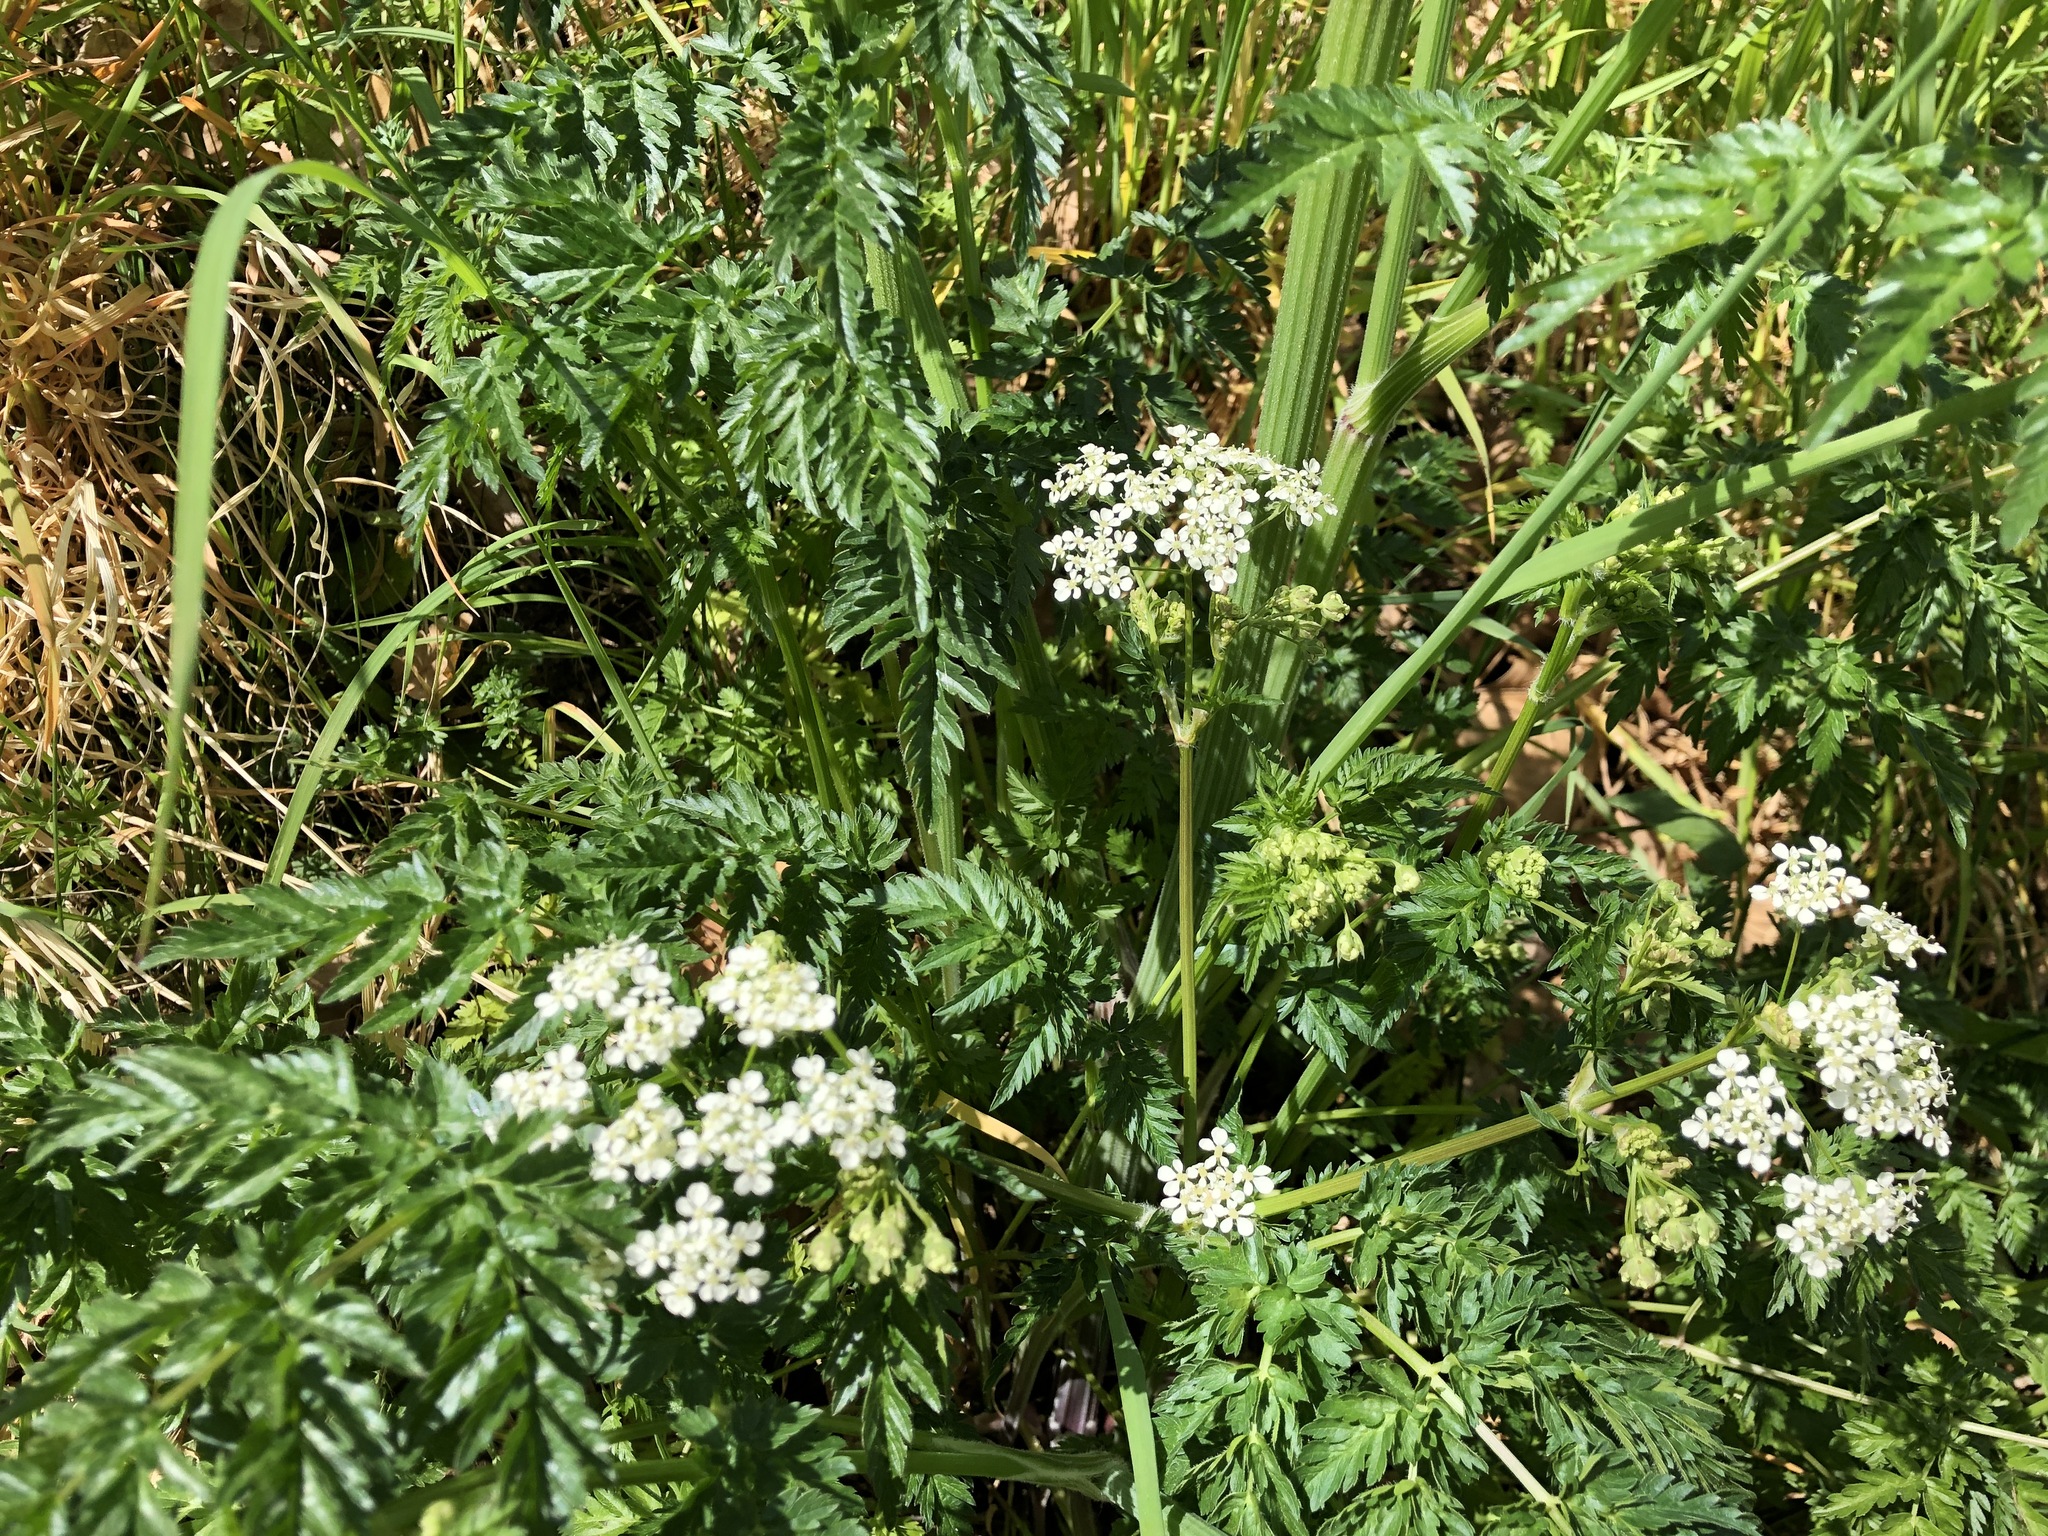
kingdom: Plantae
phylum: Tracheophyta
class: Magnoliopsida
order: Apiales
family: Apiaceae
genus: Anthriscus
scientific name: Anthriscus sylvestris
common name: Cow parsley
